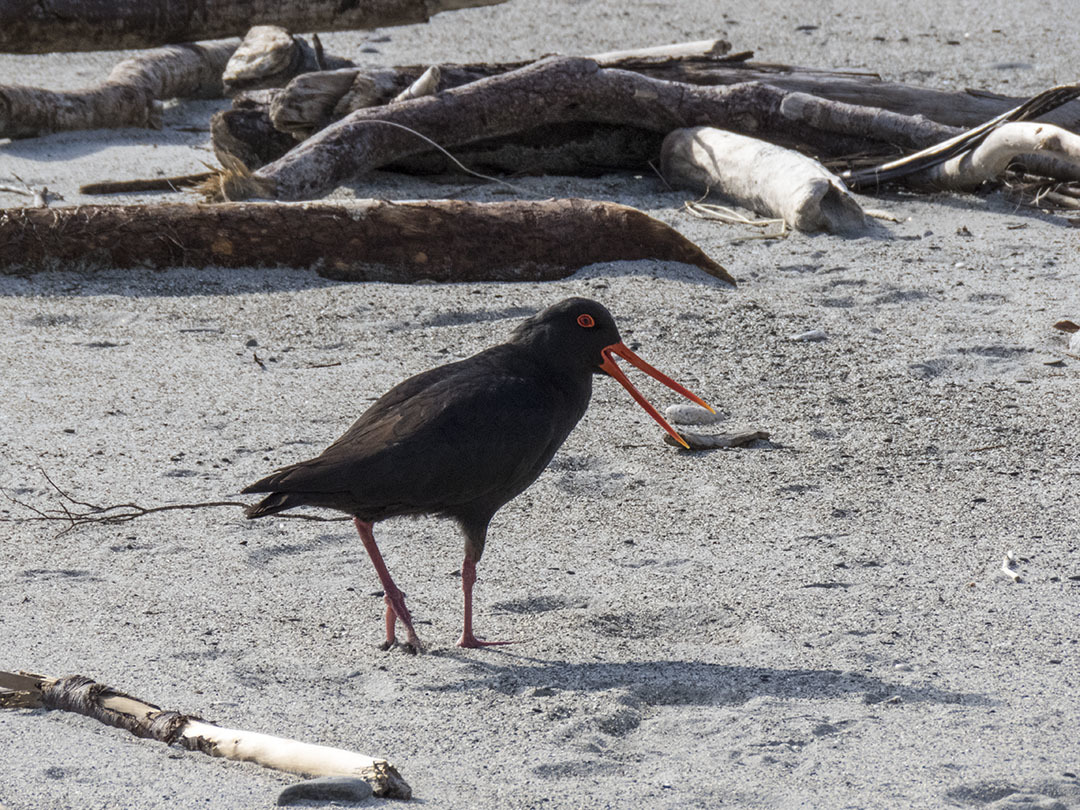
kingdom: Animalia
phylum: Chordata
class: Aves
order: Charadriiformes
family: Haematopodidae
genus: Haematopus
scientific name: Haematopus unicolor
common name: Variable oystercatcher
